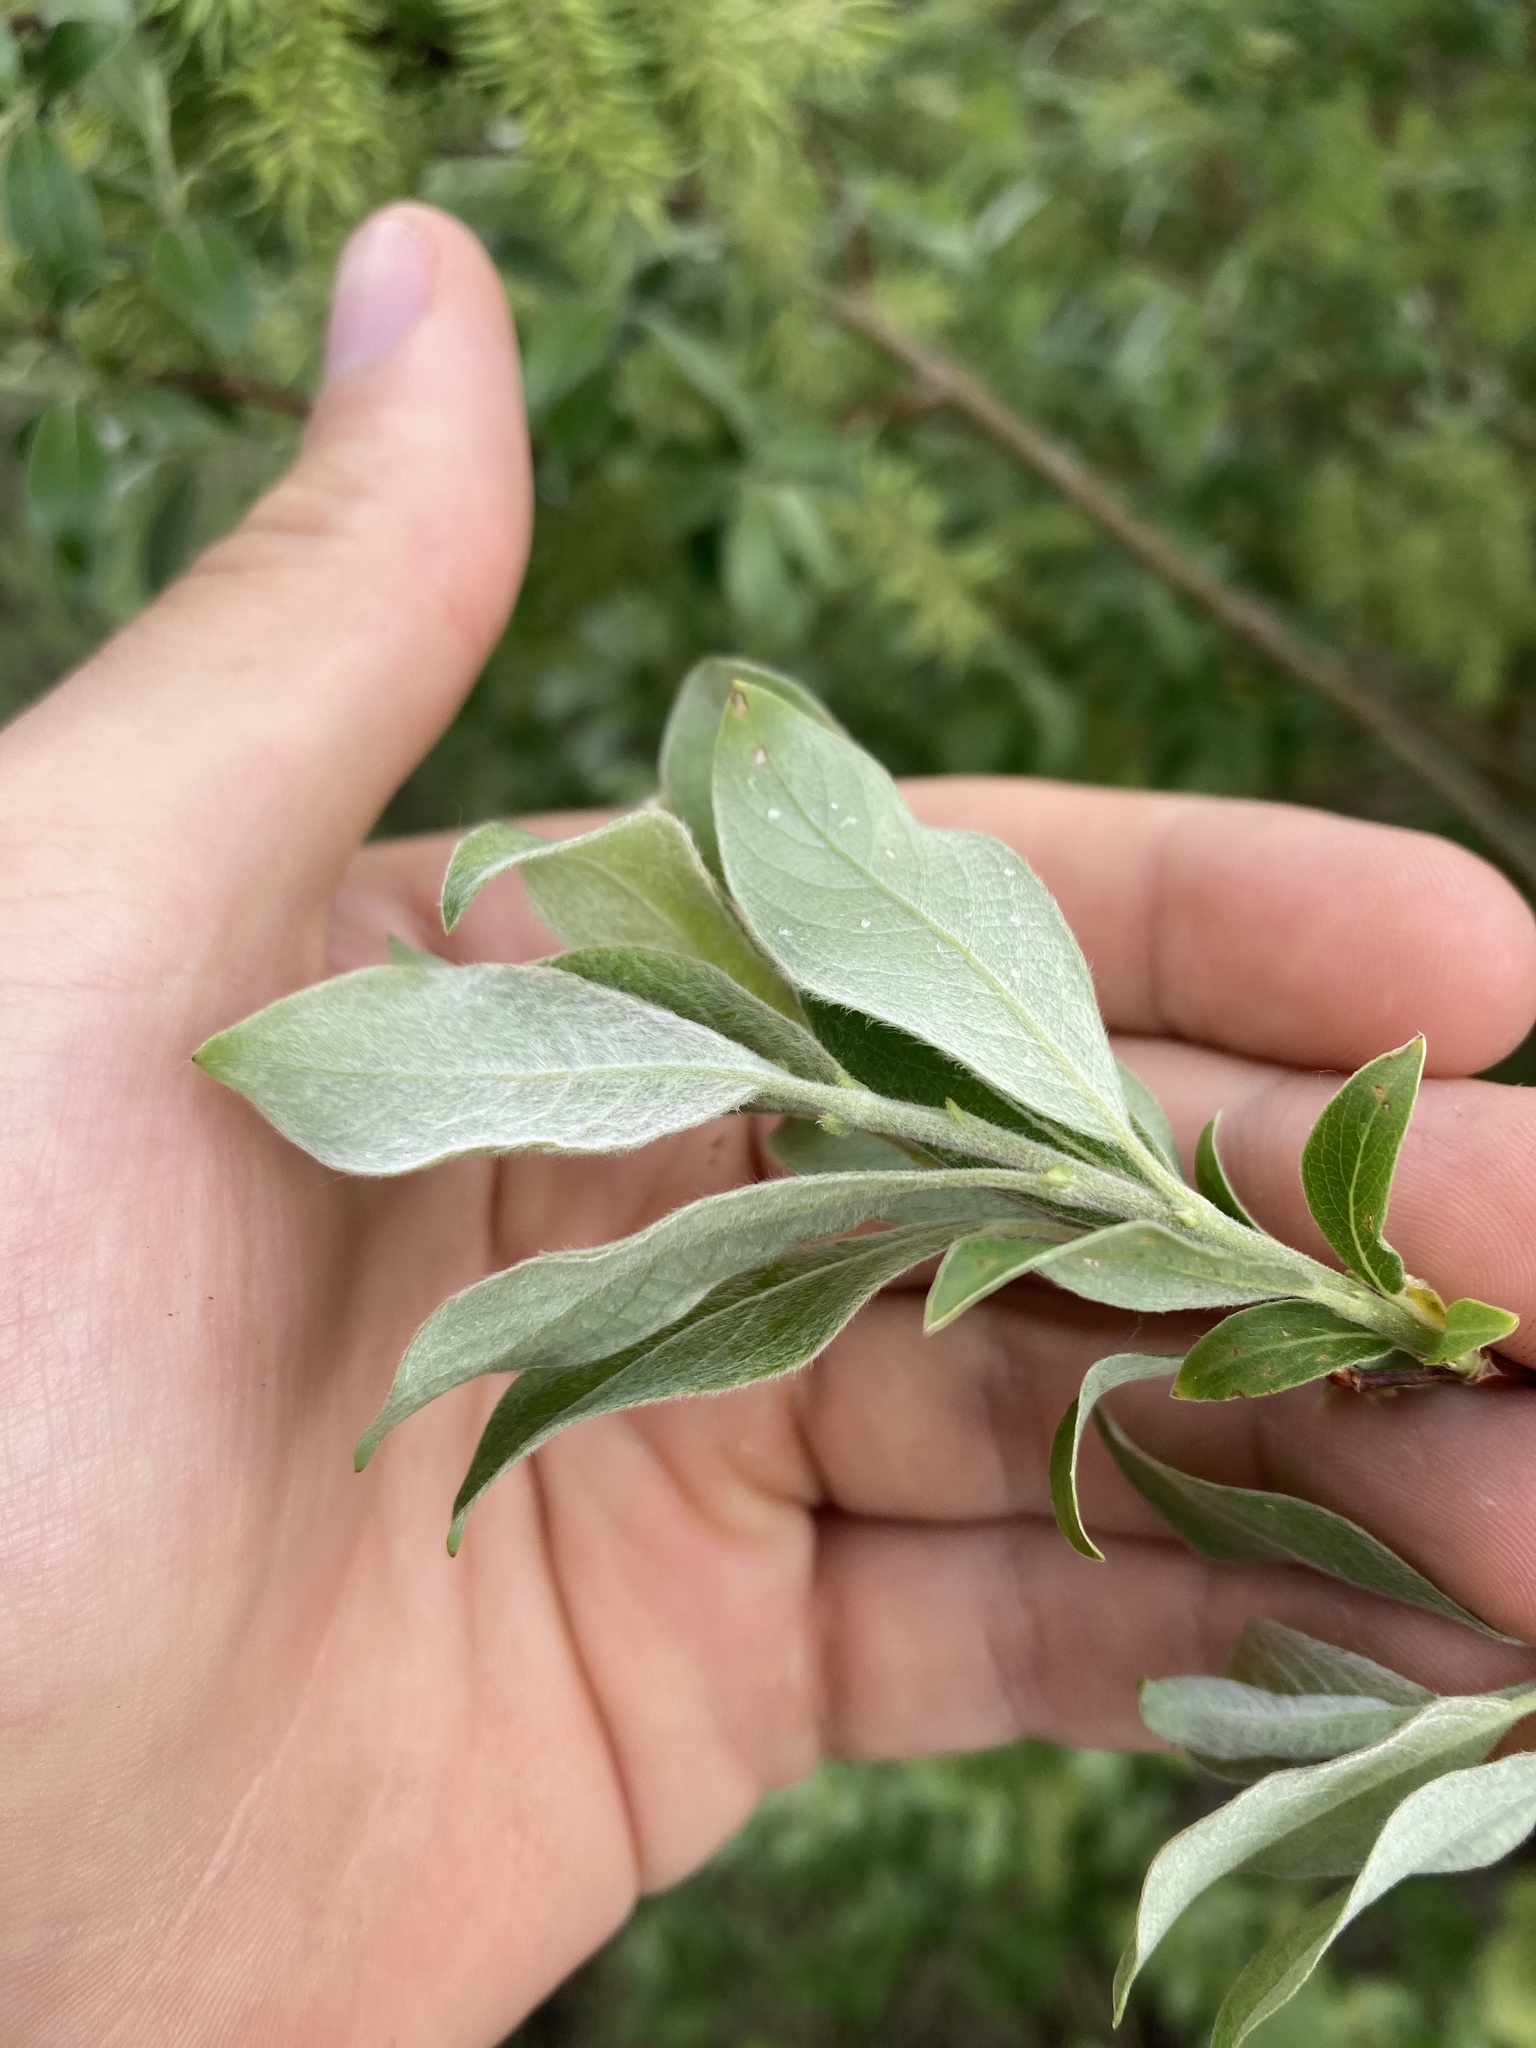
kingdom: Plantae
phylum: Tracheophyta
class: Magnoliopsida
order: Malpighiales
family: Salicaceae
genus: Salix
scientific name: Salix bebbiana
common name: Bebb's willow
